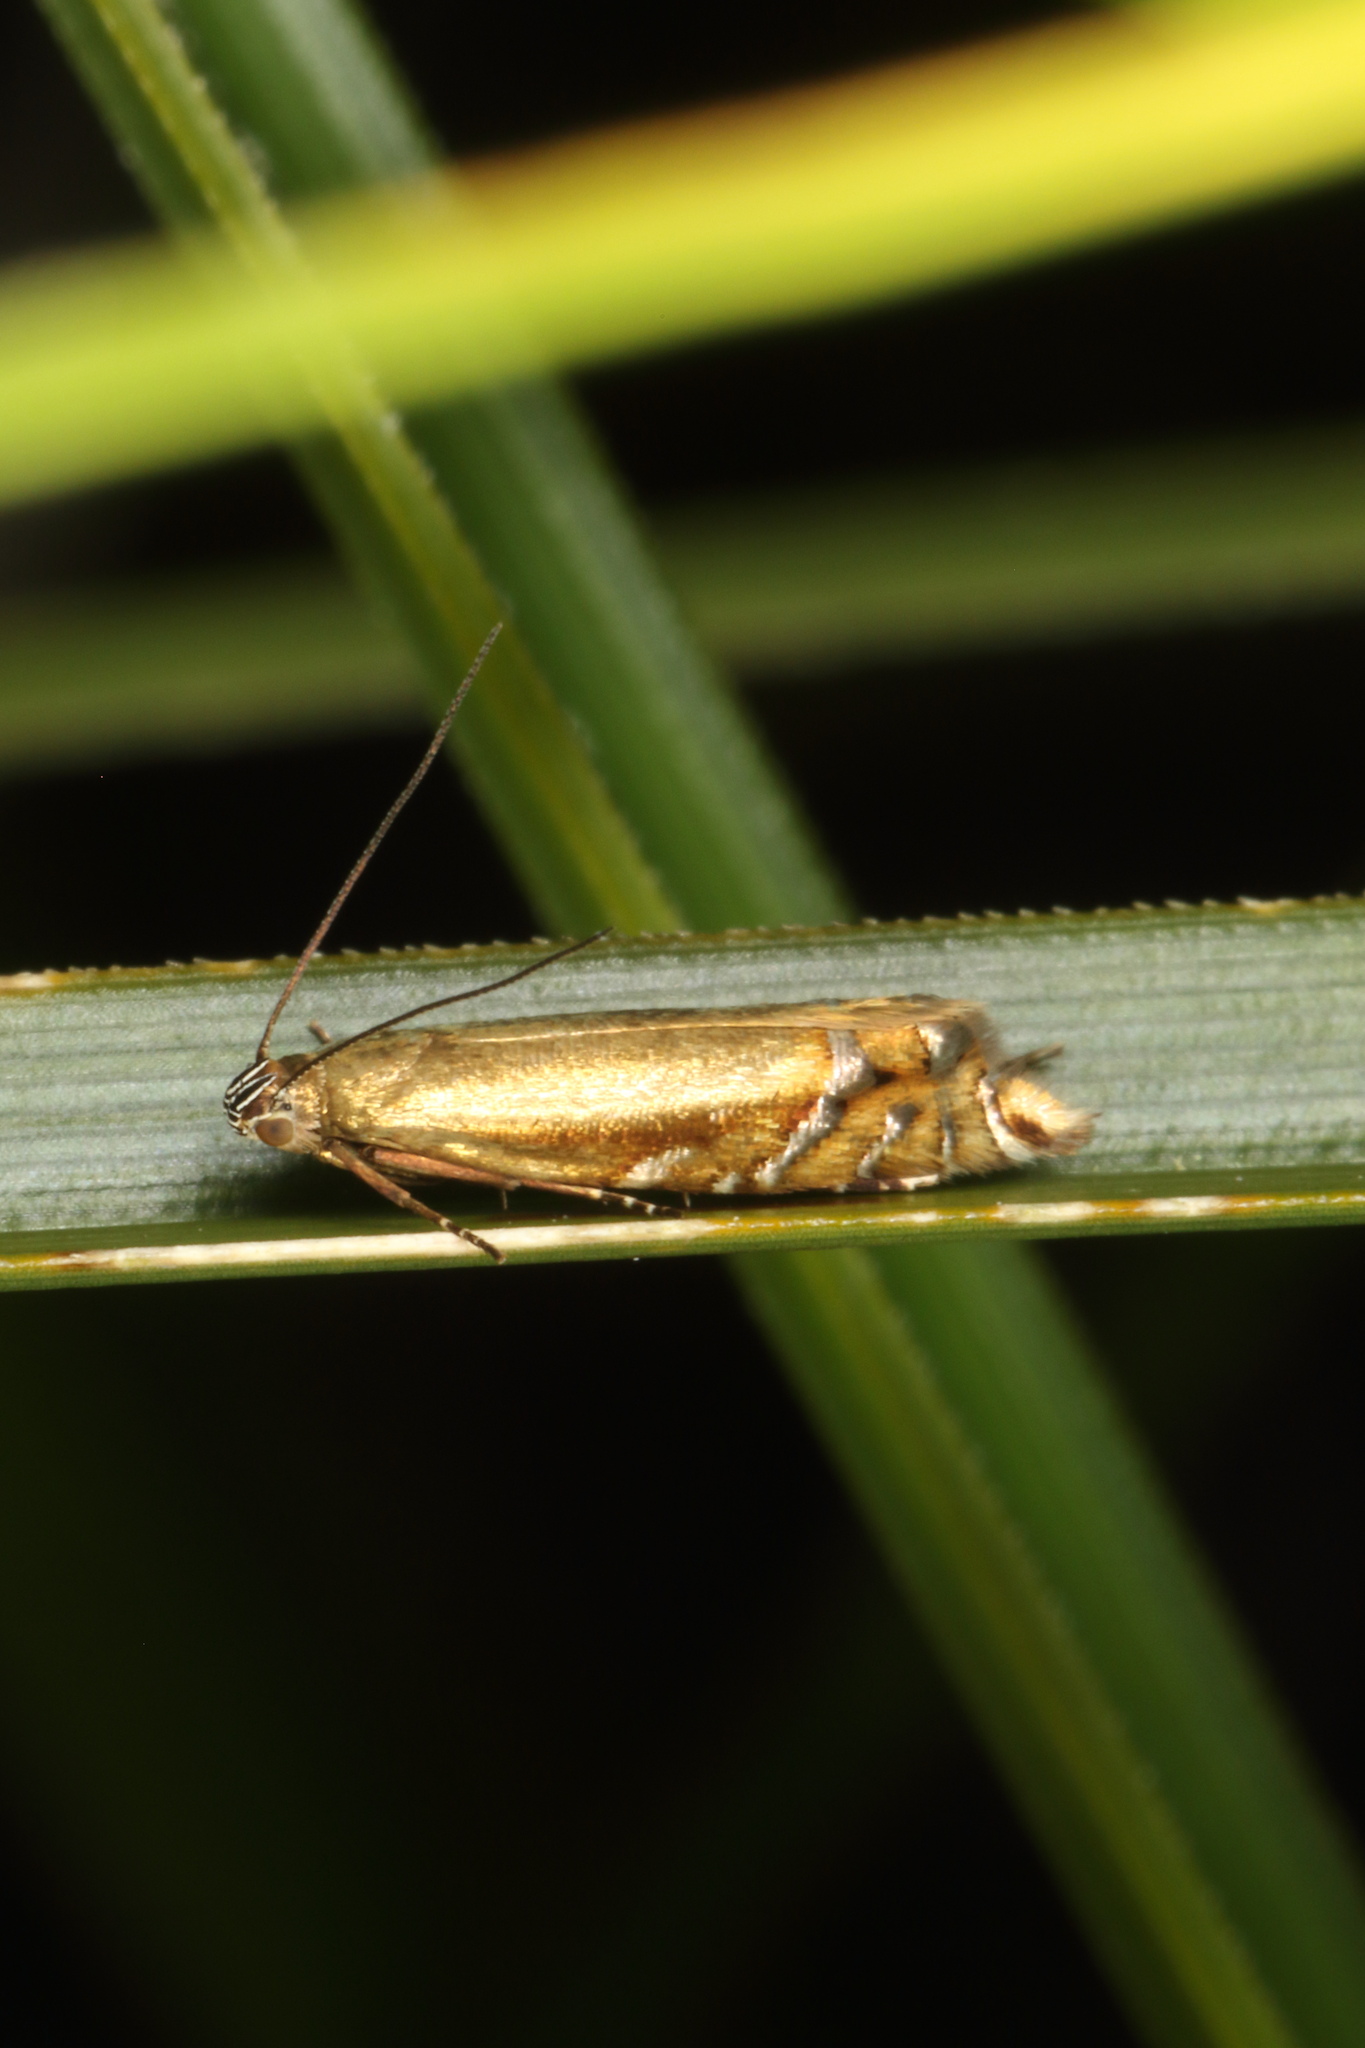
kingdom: Animalia
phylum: Arthropoda
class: Insecta
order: Lepidoptera
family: Glyphipterigidae
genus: Glyphipterix
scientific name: Glyphipterix astrapaea
